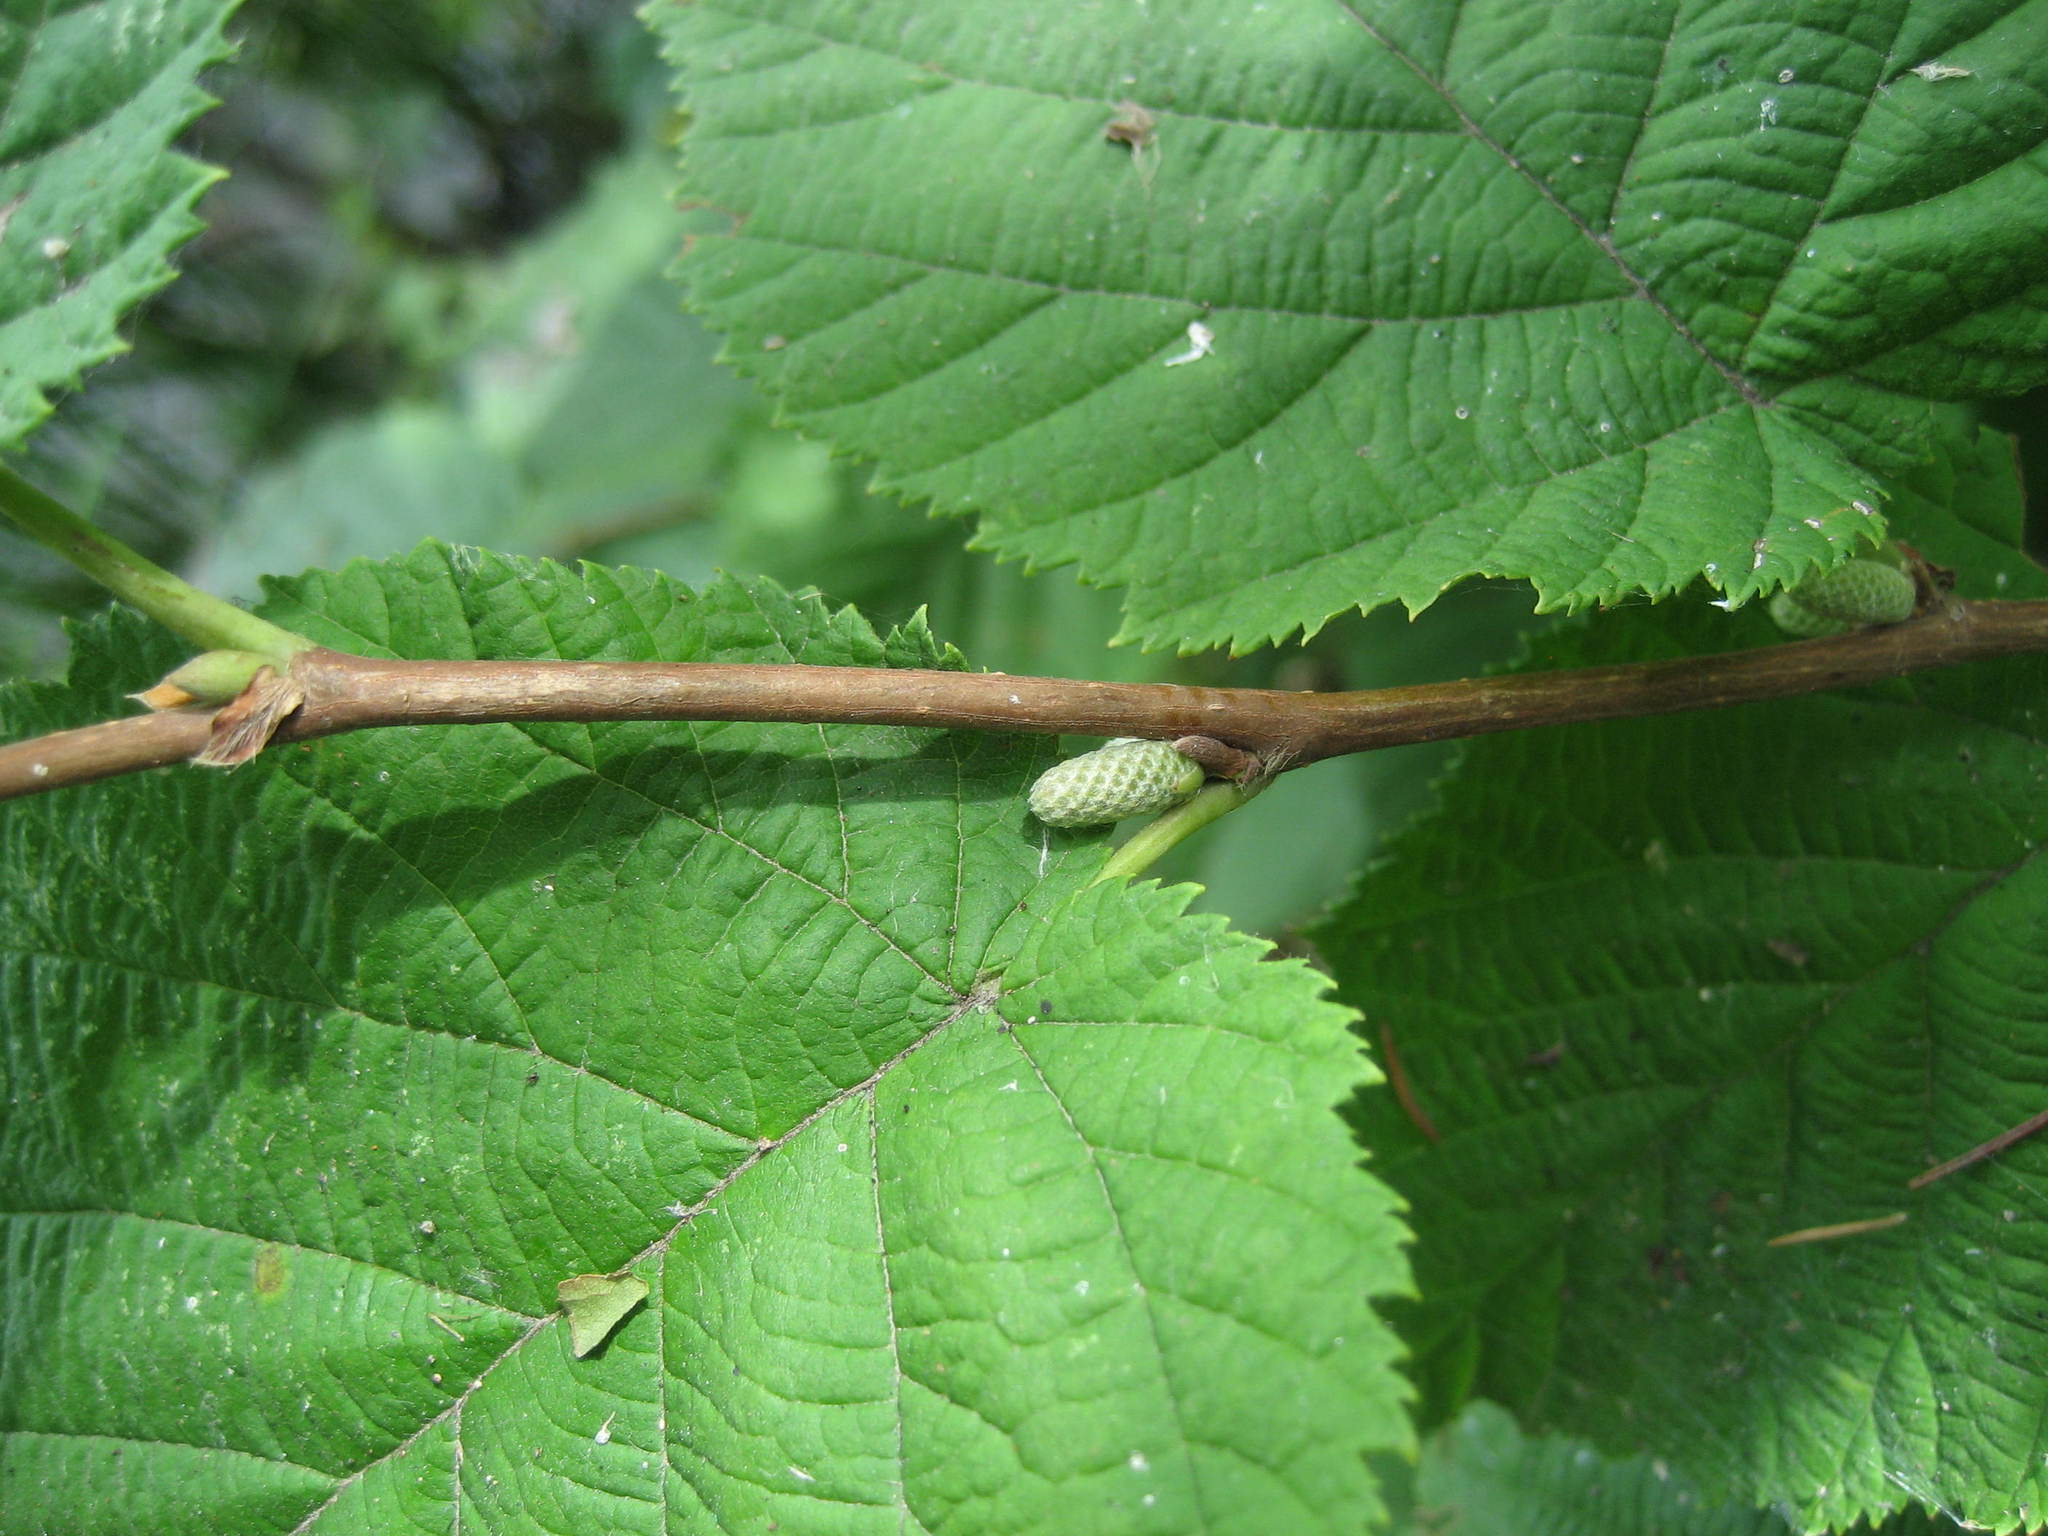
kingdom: Plantae
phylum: Tracheophyta
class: Magnoliopsida
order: Fagales
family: Betulaceae
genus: Corylus
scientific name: Corylus cornuta
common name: Beaked hazel
